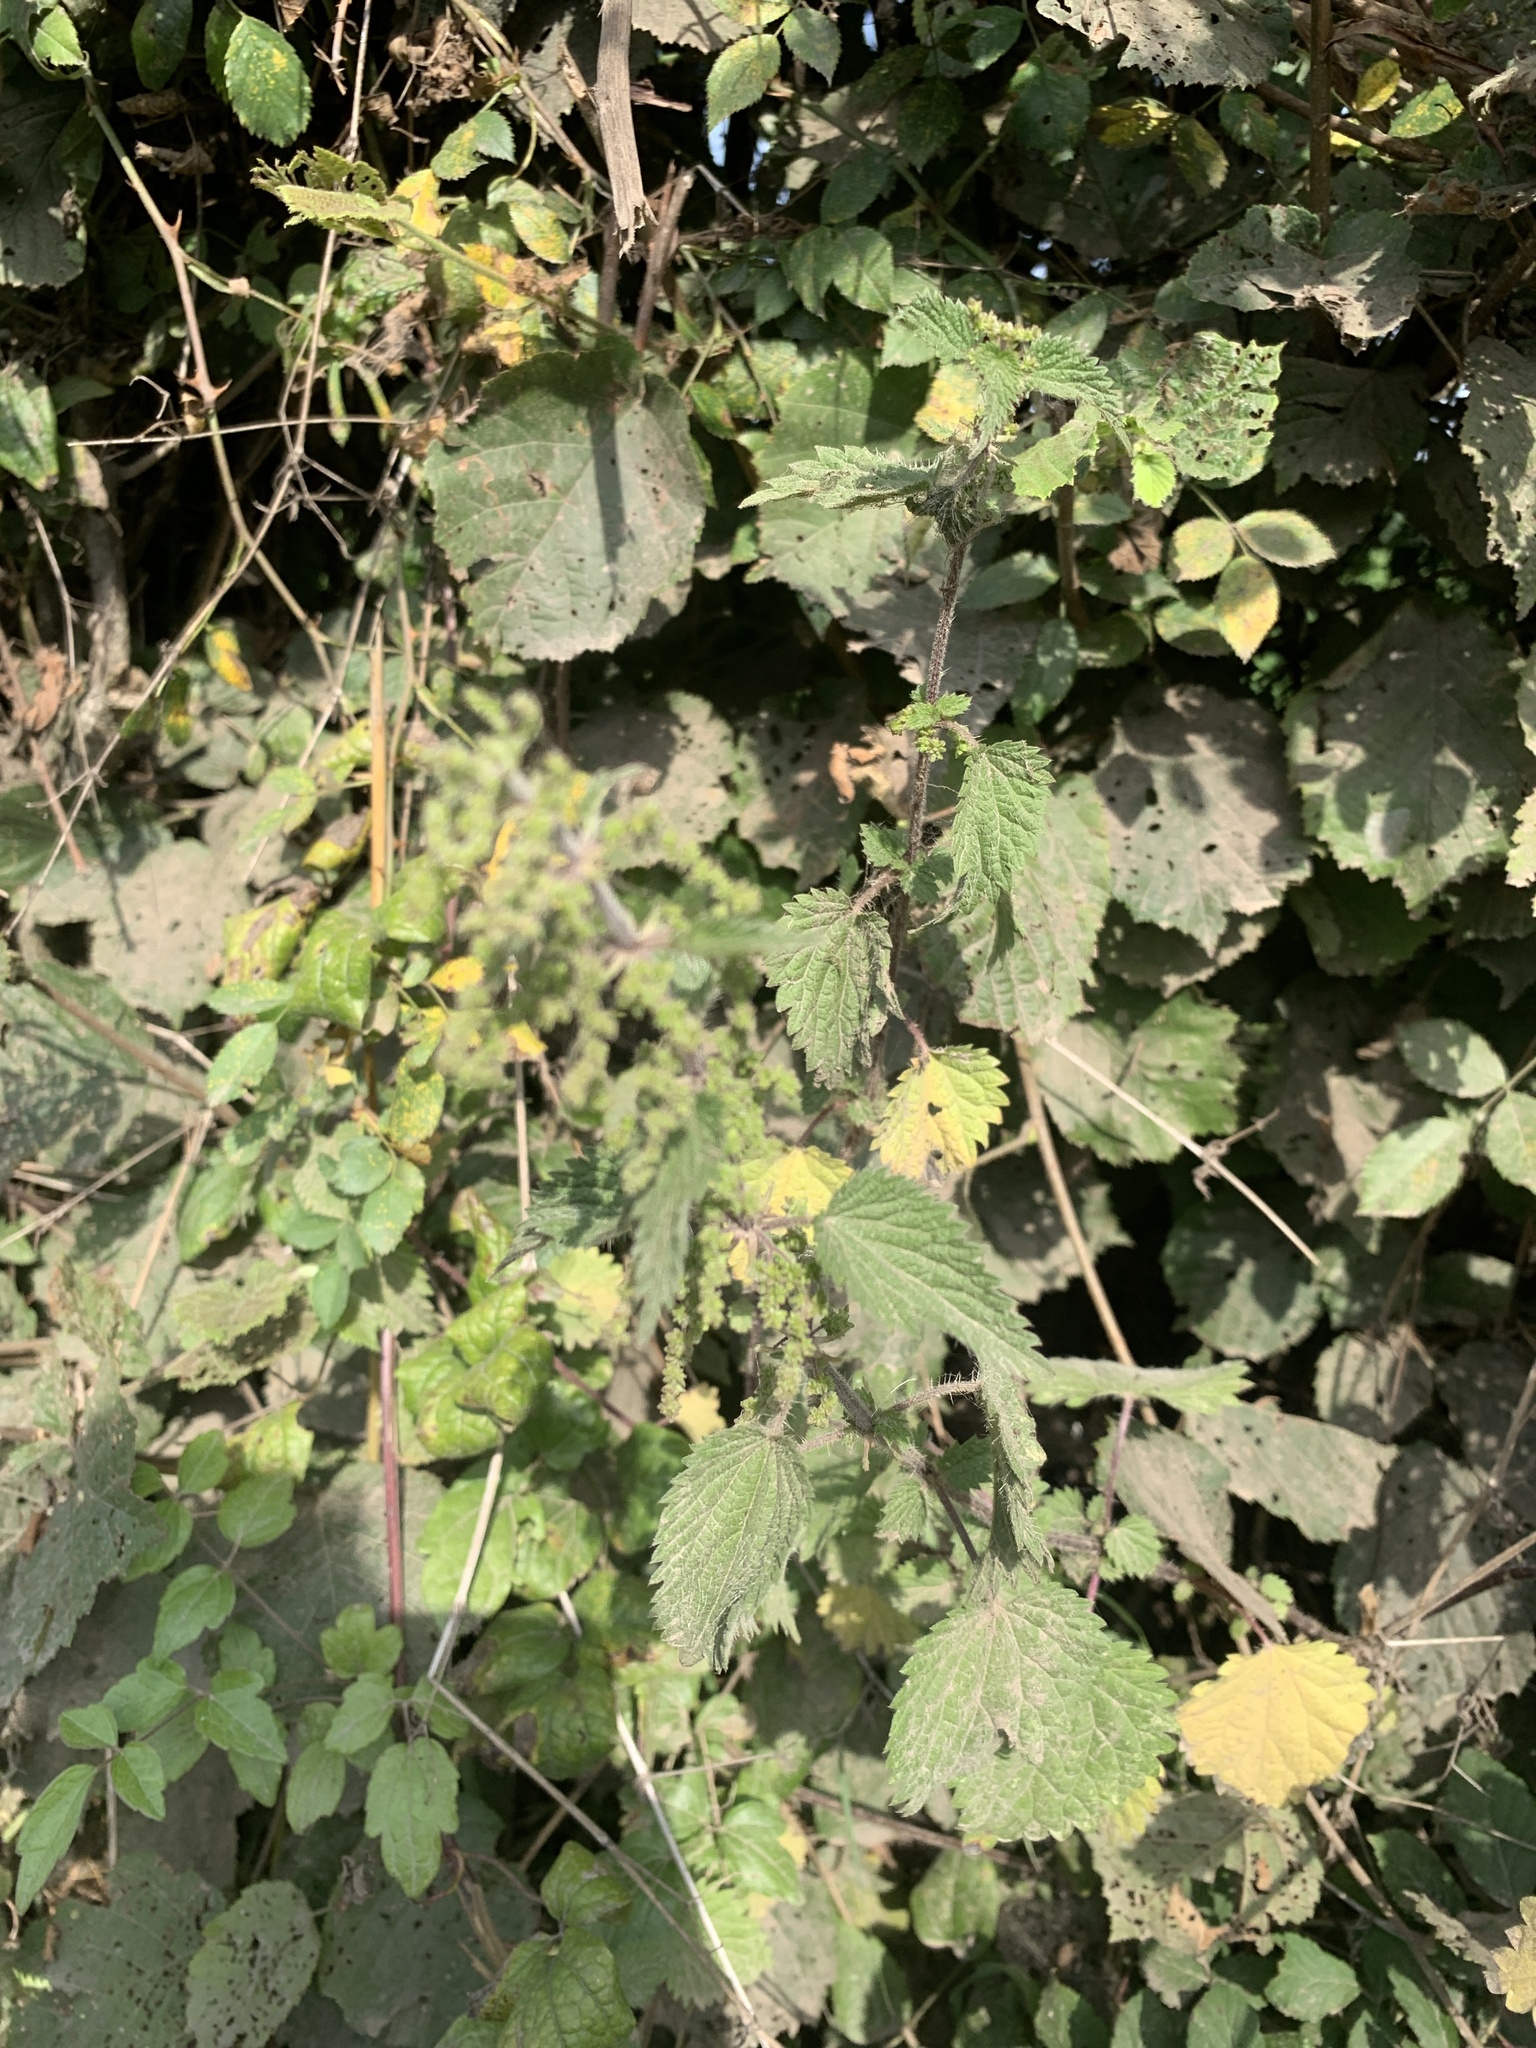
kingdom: Plantae
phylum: Tracheophyta
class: Magnoliopsida
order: Rosales
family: Urticaceae
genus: Urtica
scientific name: Urtica dioica
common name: Common nettle
